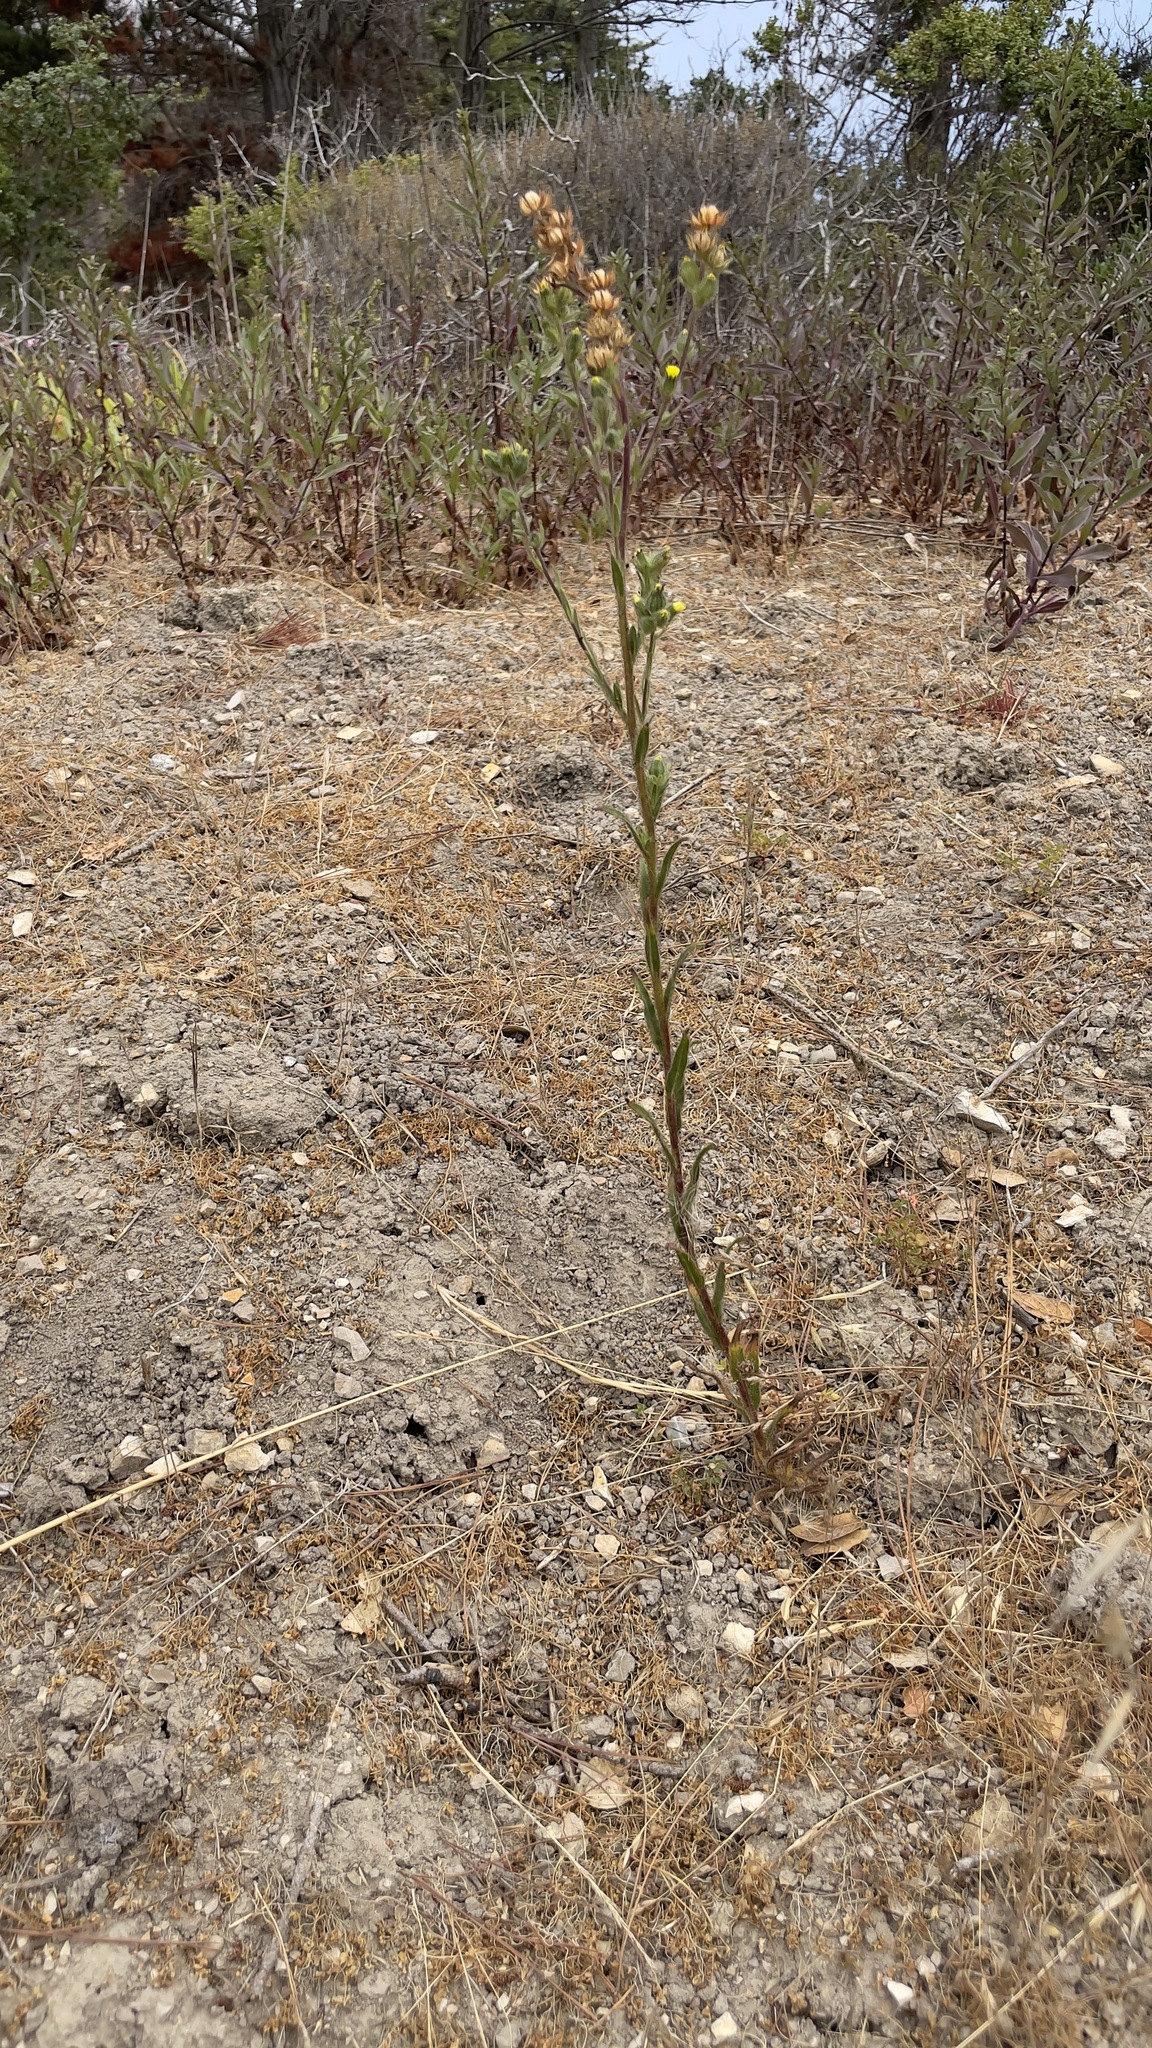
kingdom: Plantae
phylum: Tracheophyta
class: Magnoliopsida
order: Asterales
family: Asteraceae
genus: Madia
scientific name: Madia sativa
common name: Coast tarweed
